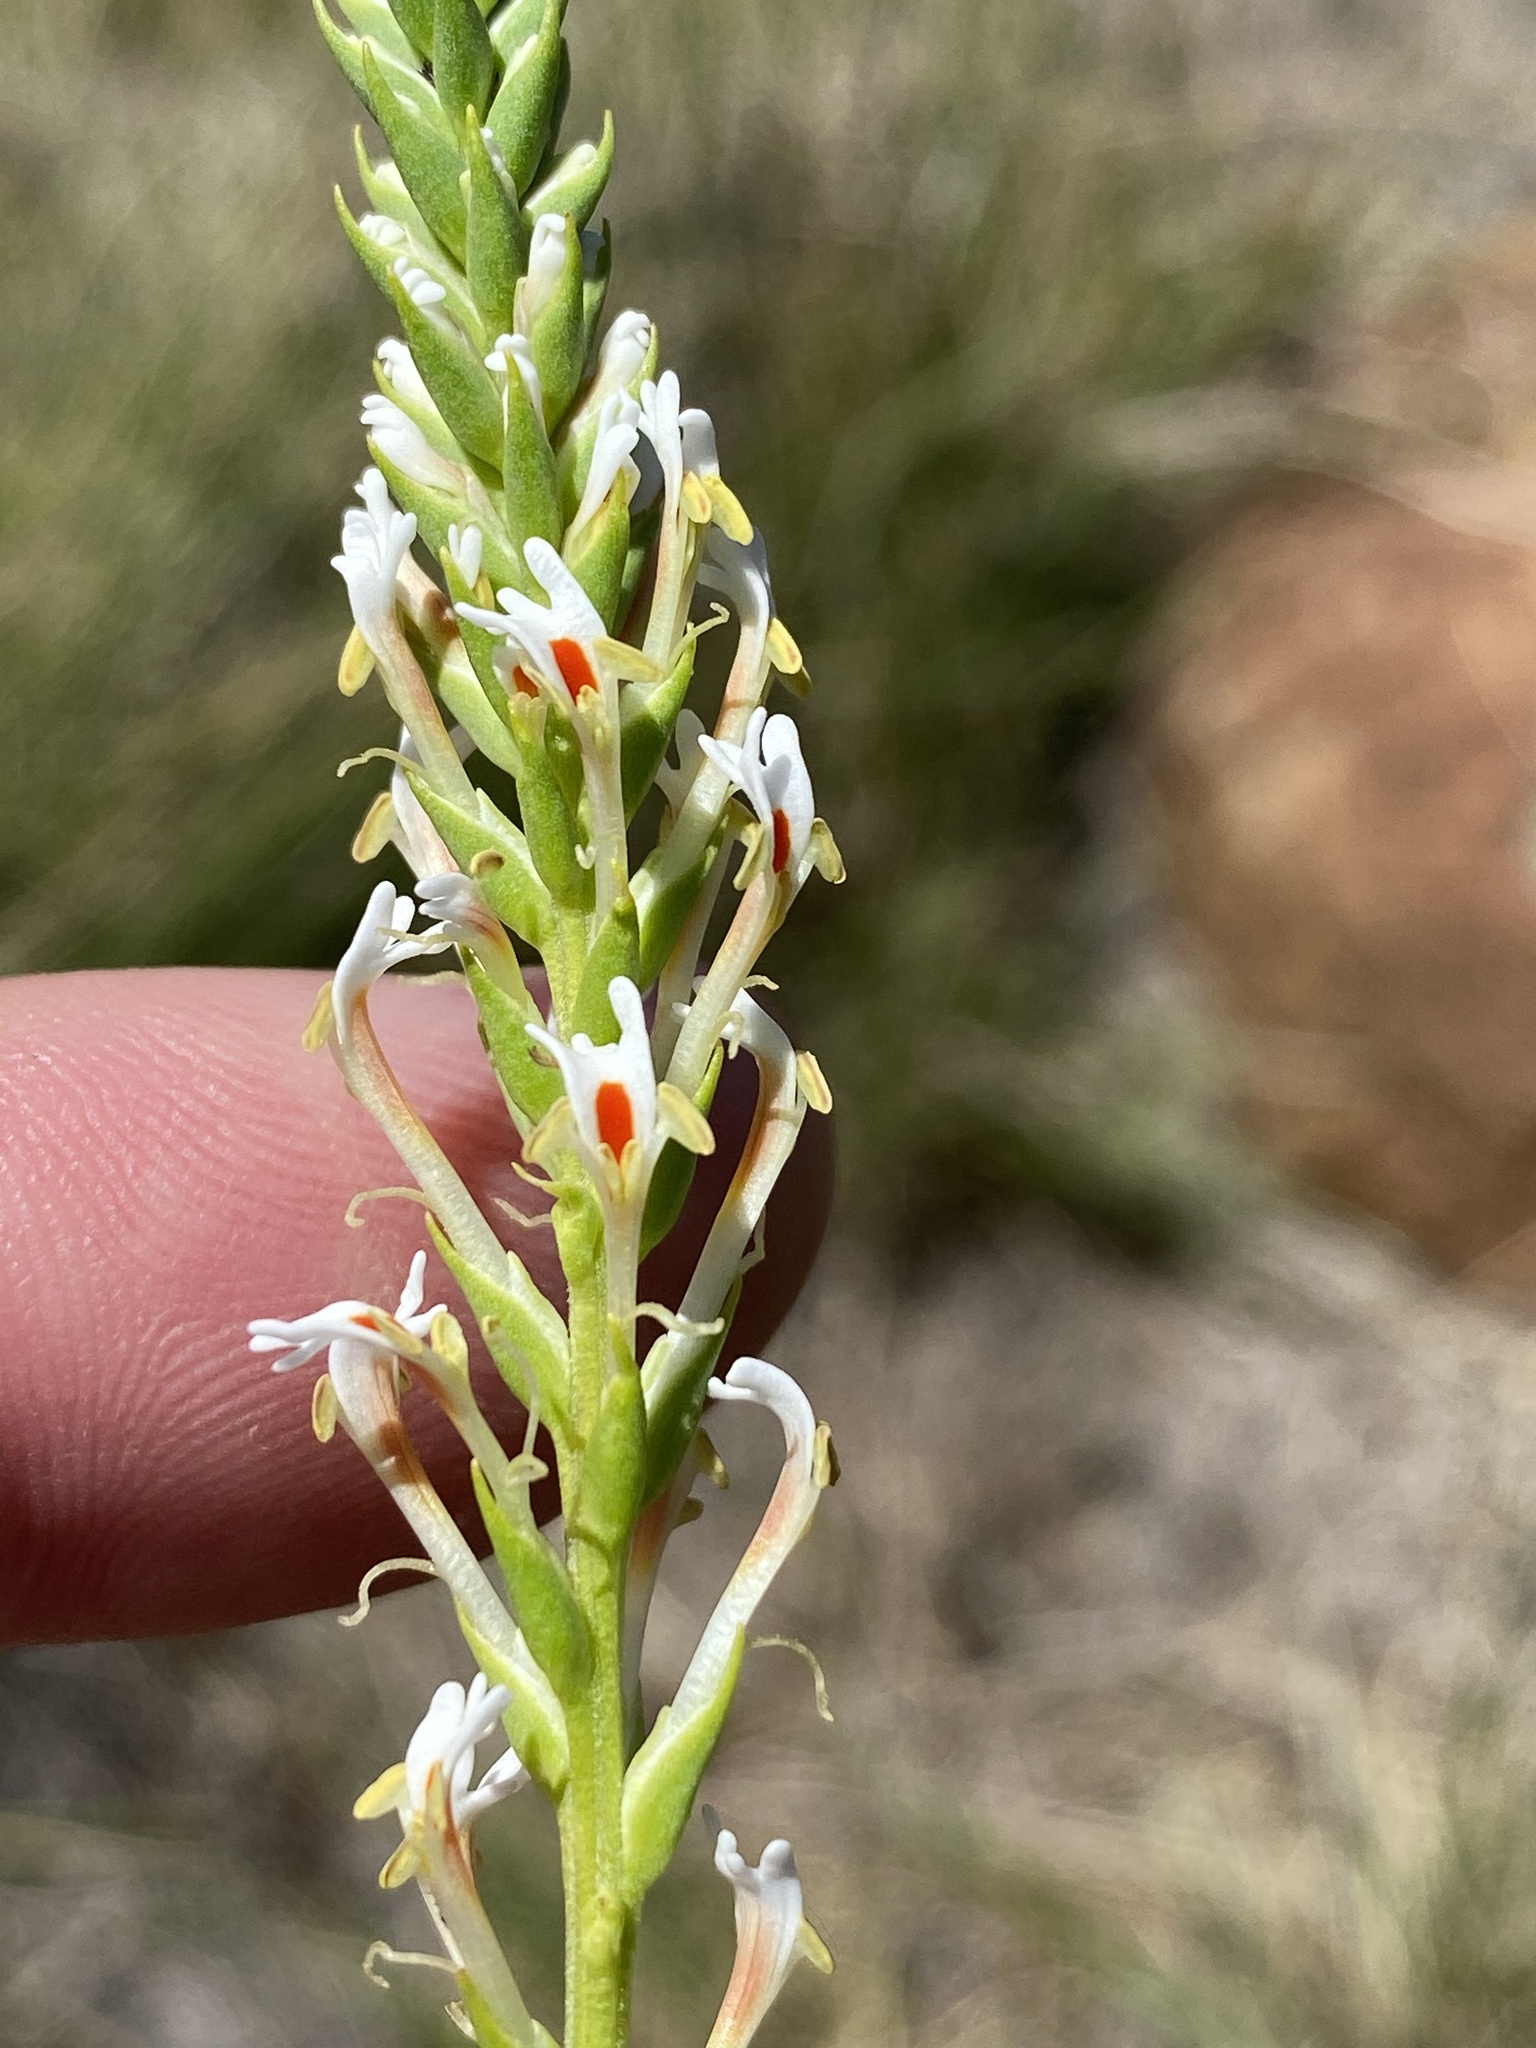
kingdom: Plantae
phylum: Tracheophyta
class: Magnoliopsida
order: Lamiales
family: Scrophulariaceae
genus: Hebenstretia
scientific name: Hebenstretia robusta
